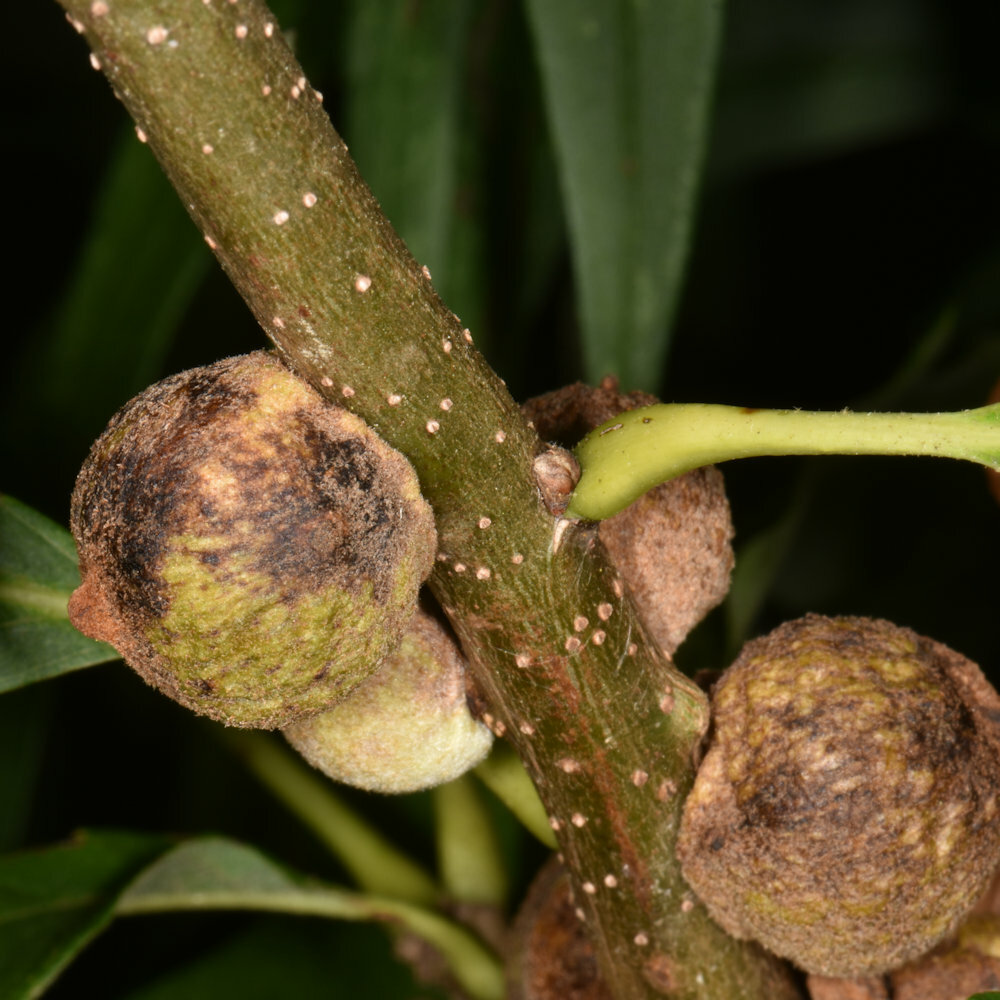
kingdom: Animalia
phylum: Arthropoda
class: Insecta
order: Hymenoptera
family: Cynipidae
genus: Disholcaspis
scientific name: Disholcaspis
